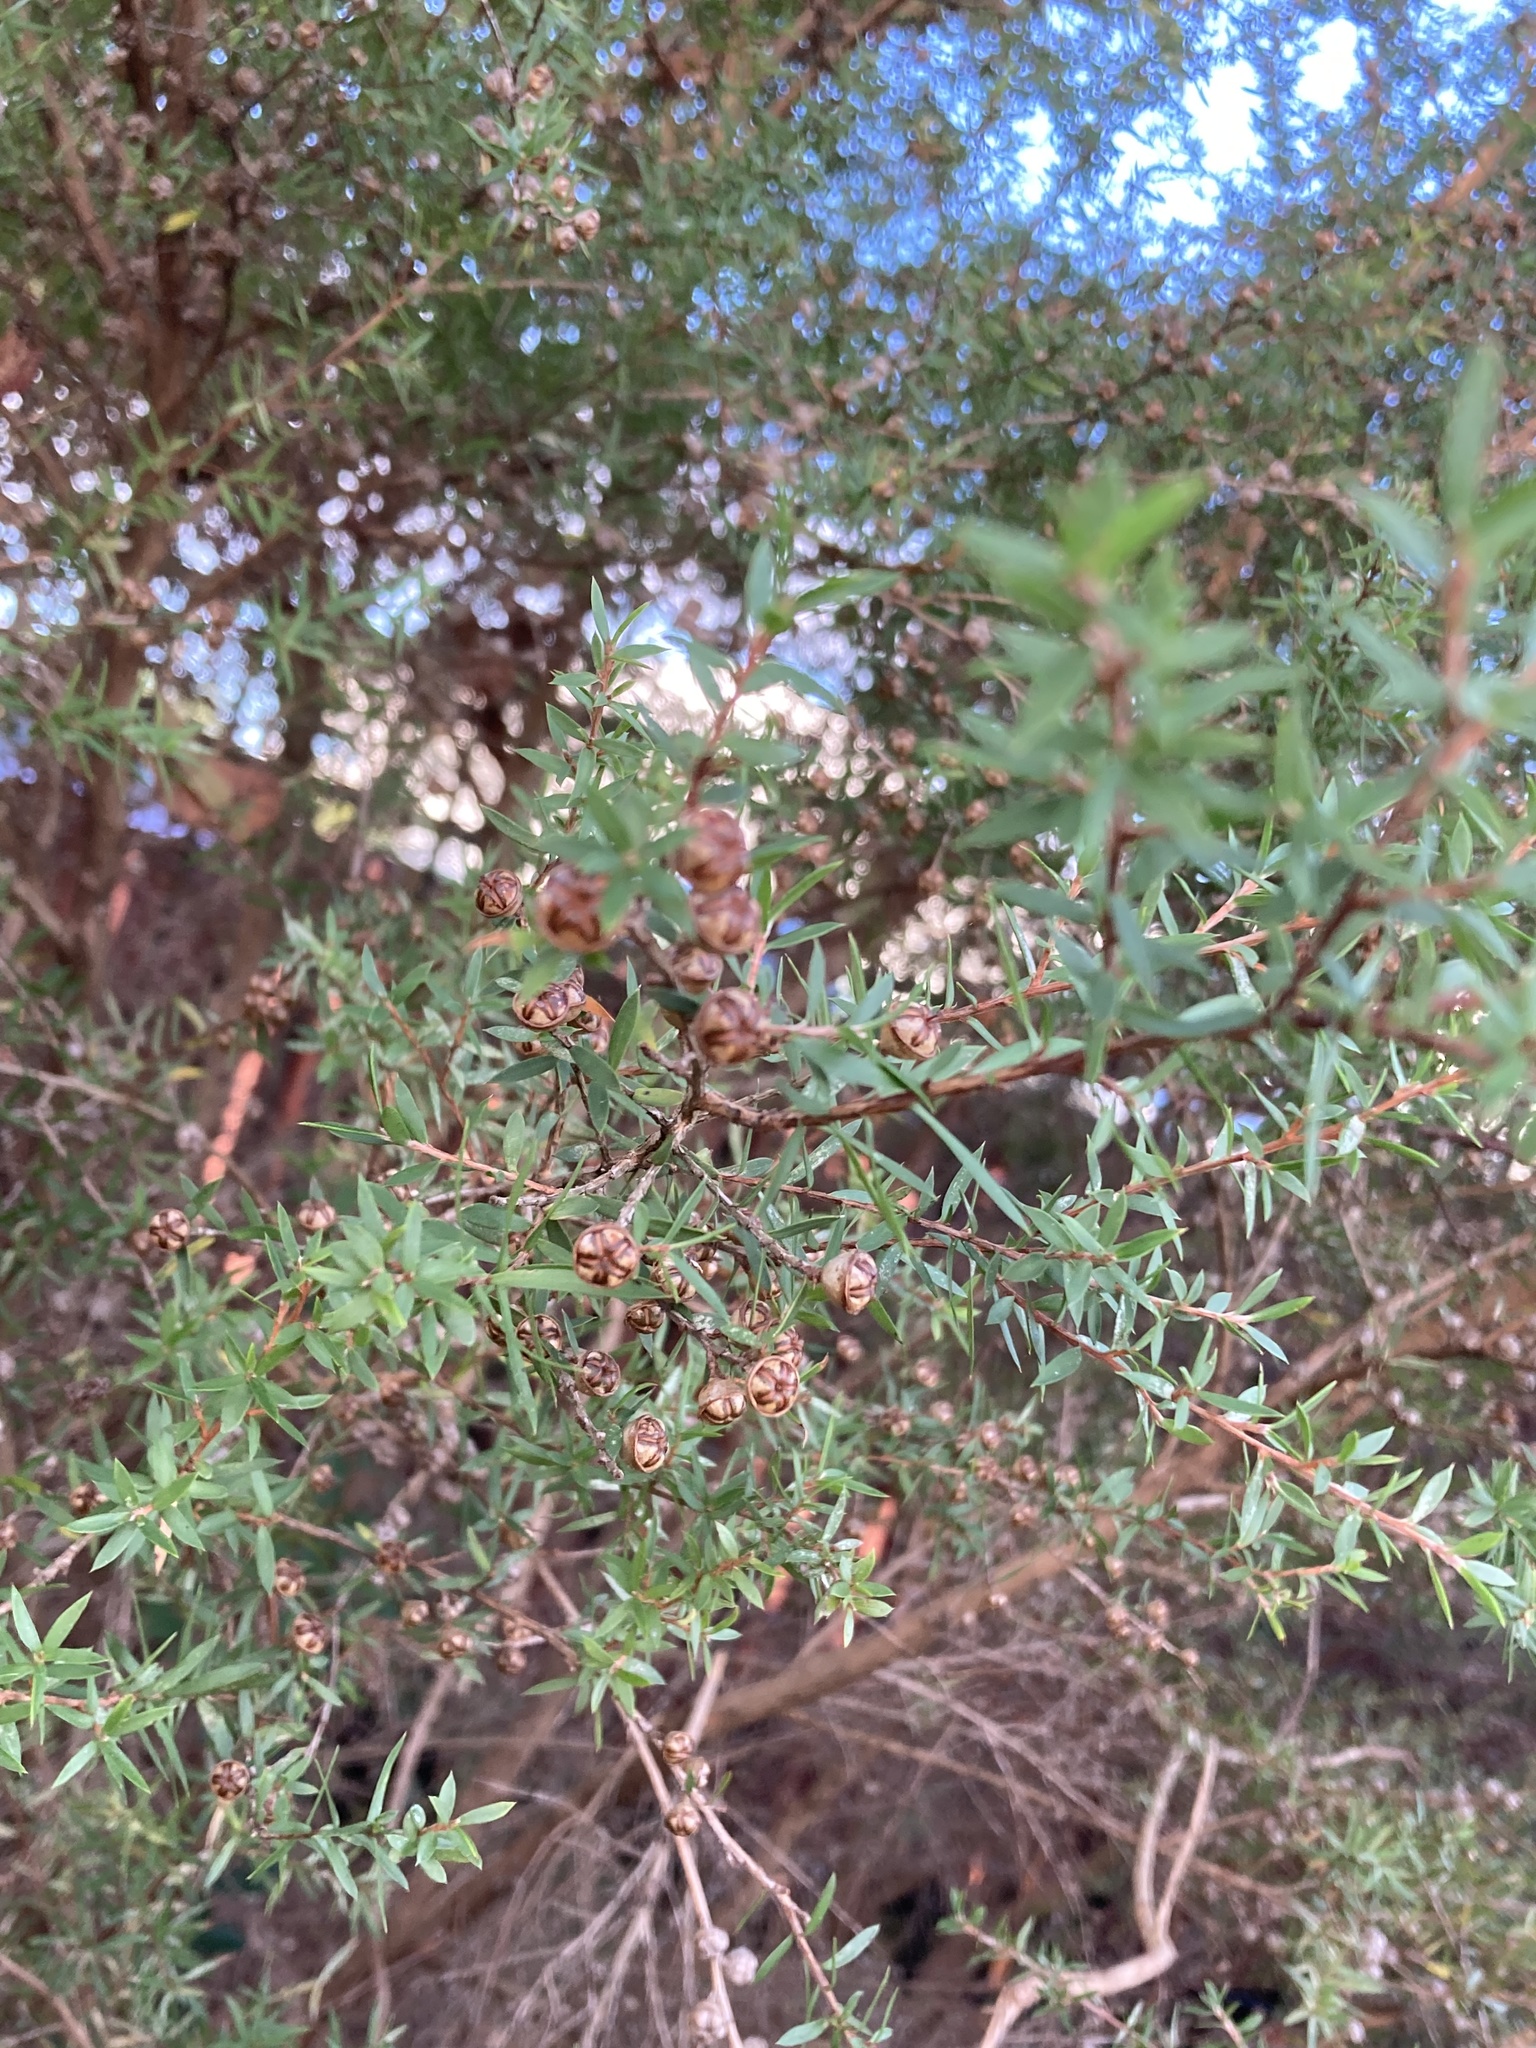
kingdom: Plantae
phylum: Tracheophyta
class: Magnoliopsida
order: Myrtales
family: Myrtaceae
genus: Leptospermum
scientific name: Leptospermum scoparium
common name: Broom tea-tree
